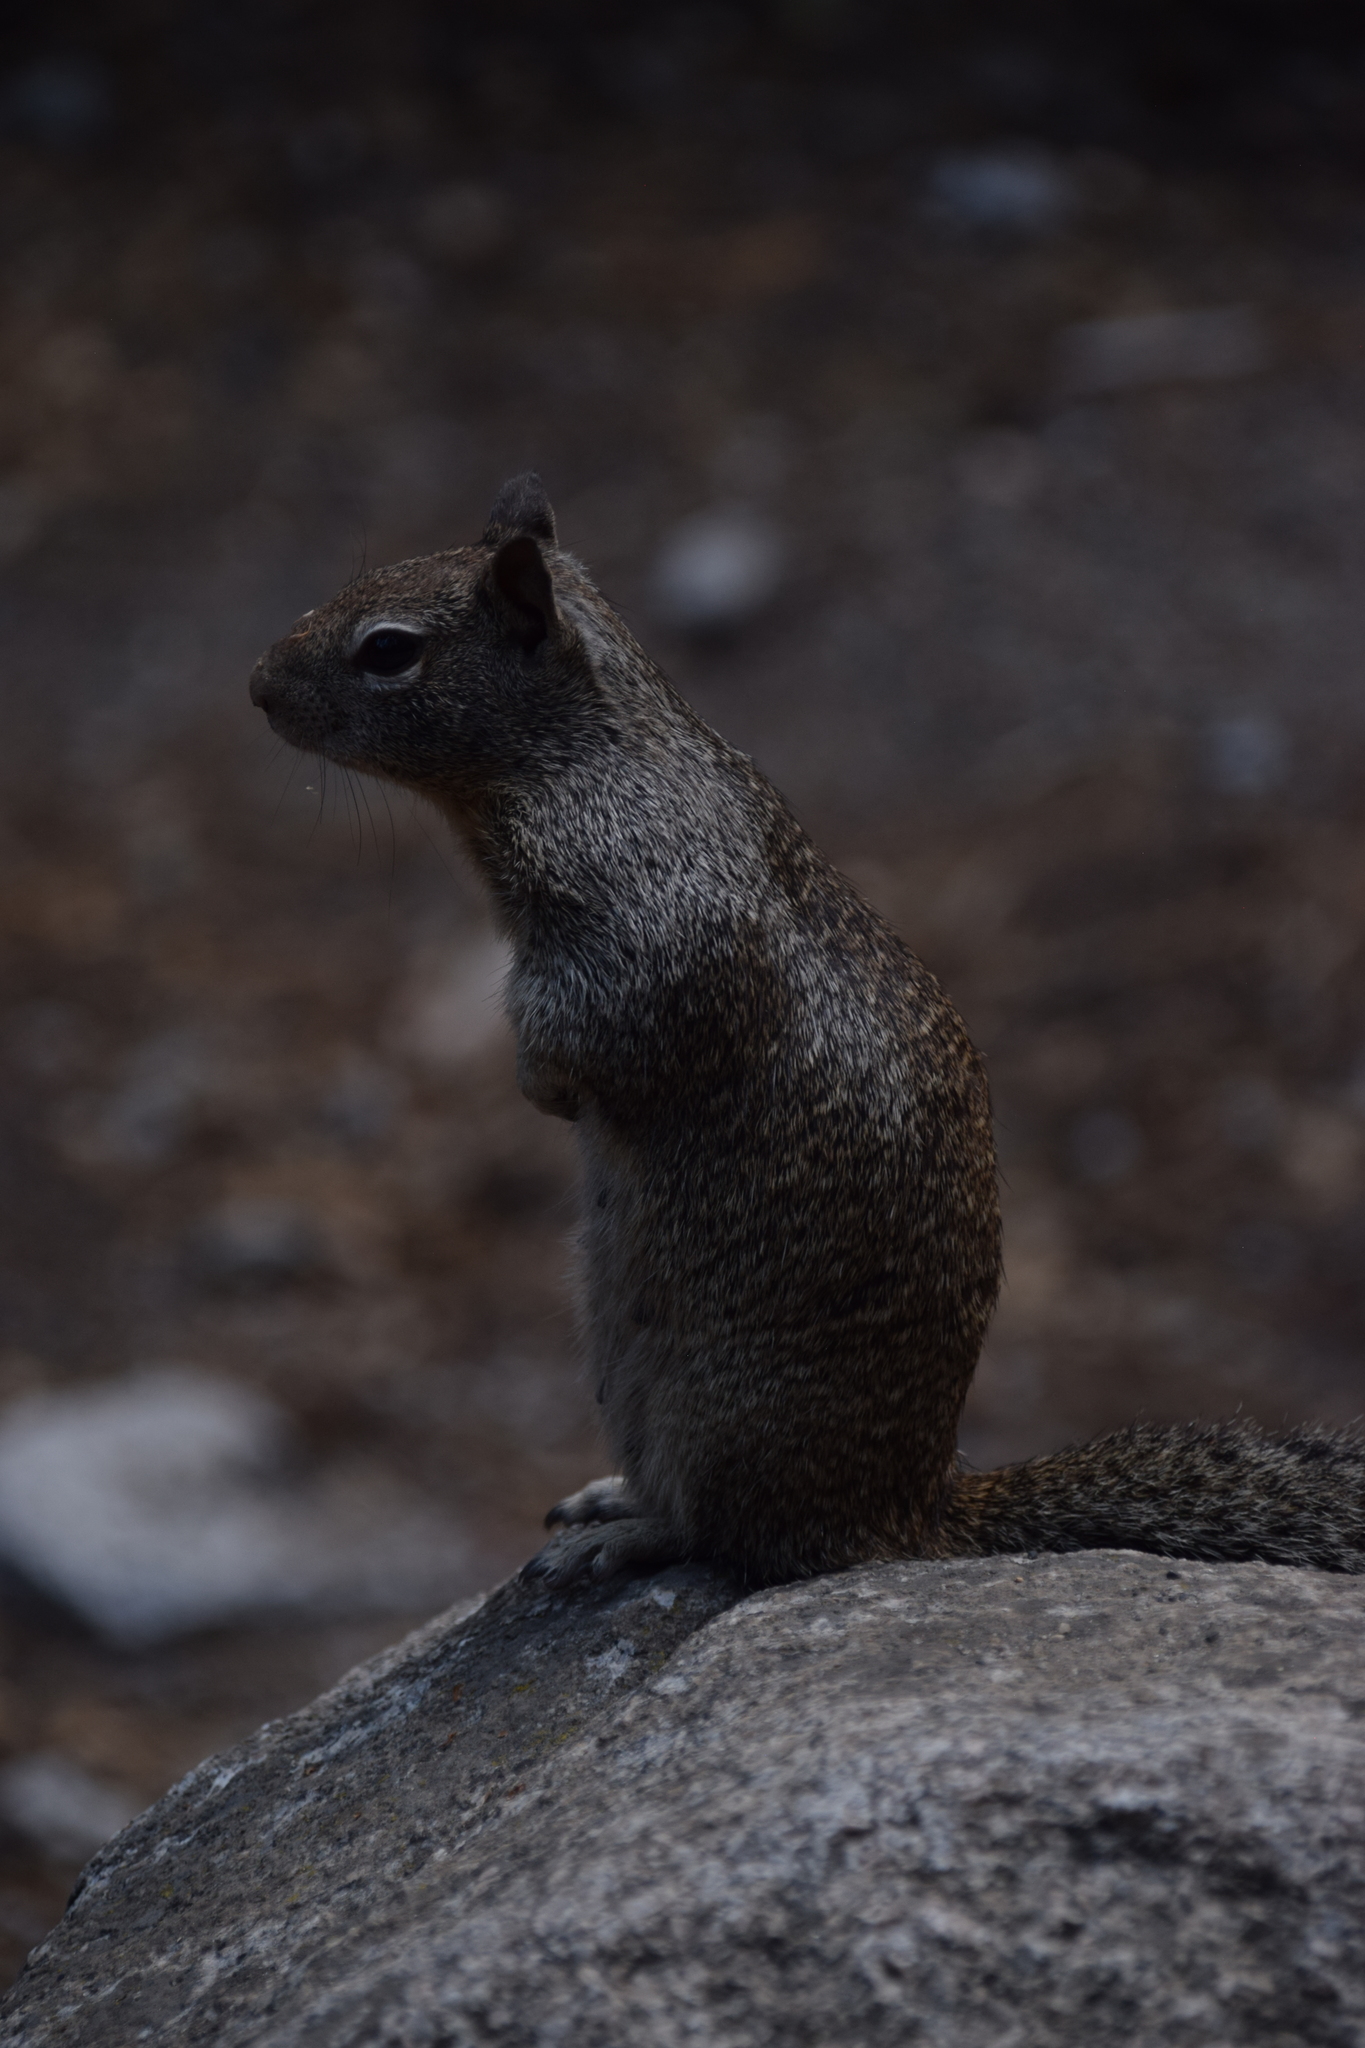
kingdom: Animalia
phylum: Chordata
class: Mammalia
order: Rodentia
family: Sciuridae
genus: Otospermophilus
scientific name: Otospermophilus beecheyi
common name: California ground squirrel
